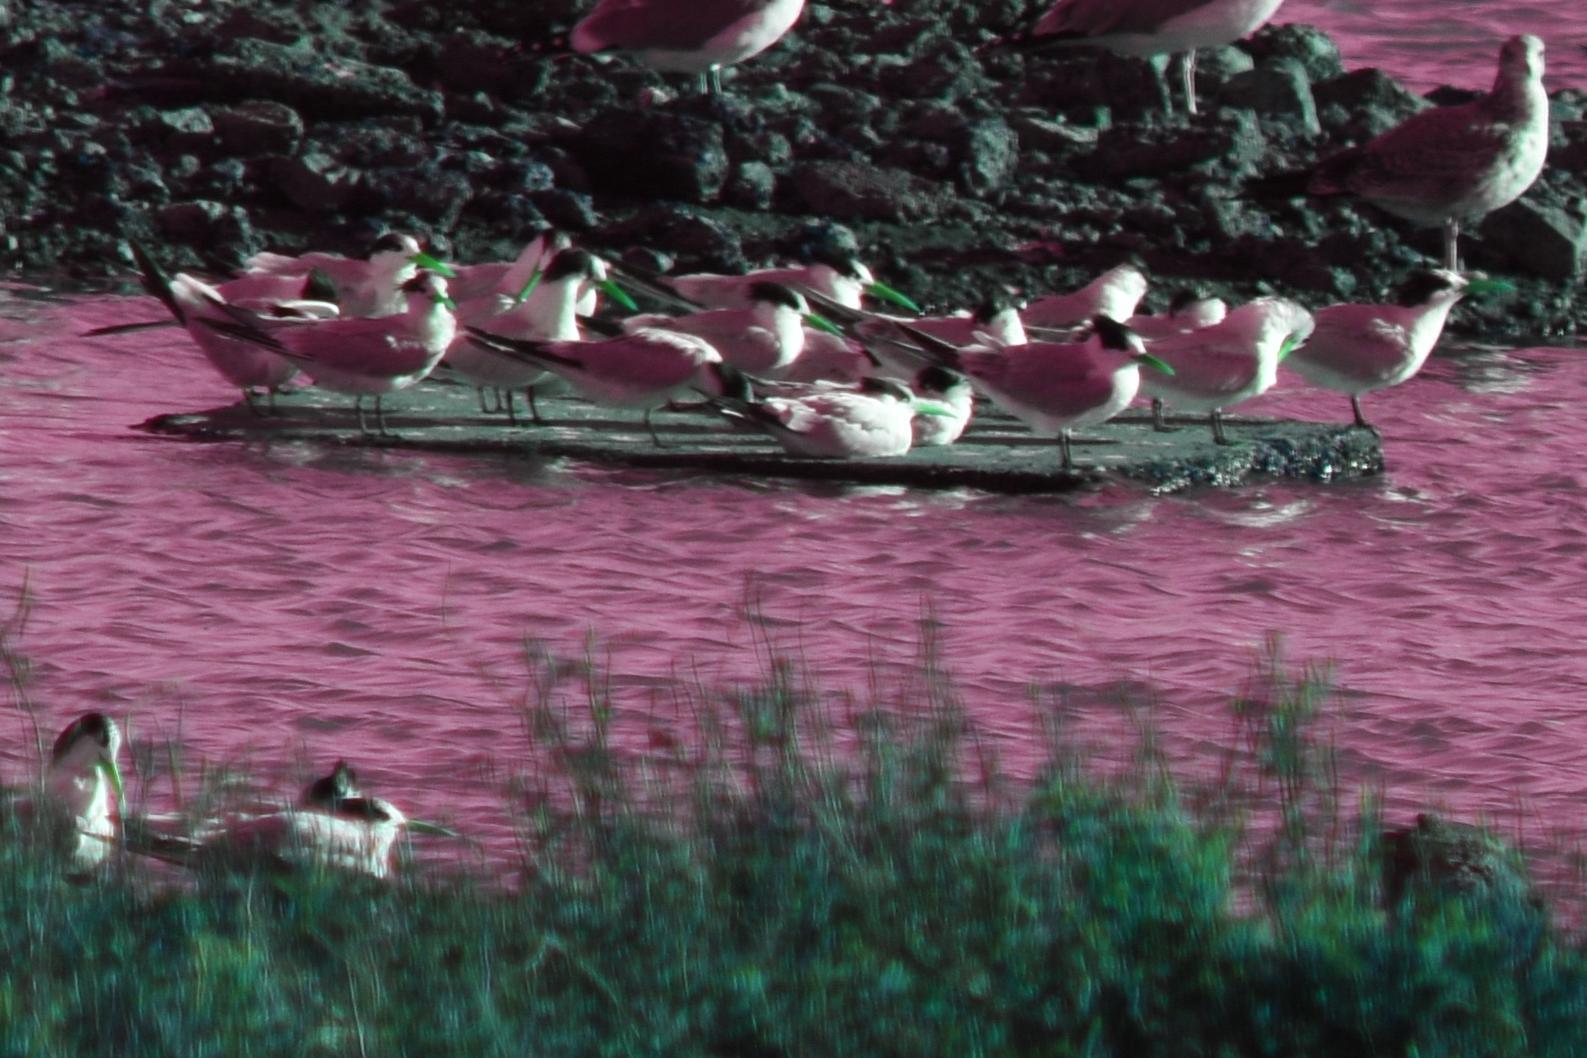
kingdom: Animalia
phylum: Chordata
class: Aves
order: Charadriiformes
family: Laridae
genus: Thalasseus
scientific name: Thalasseus elegans
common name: Elegant tern
